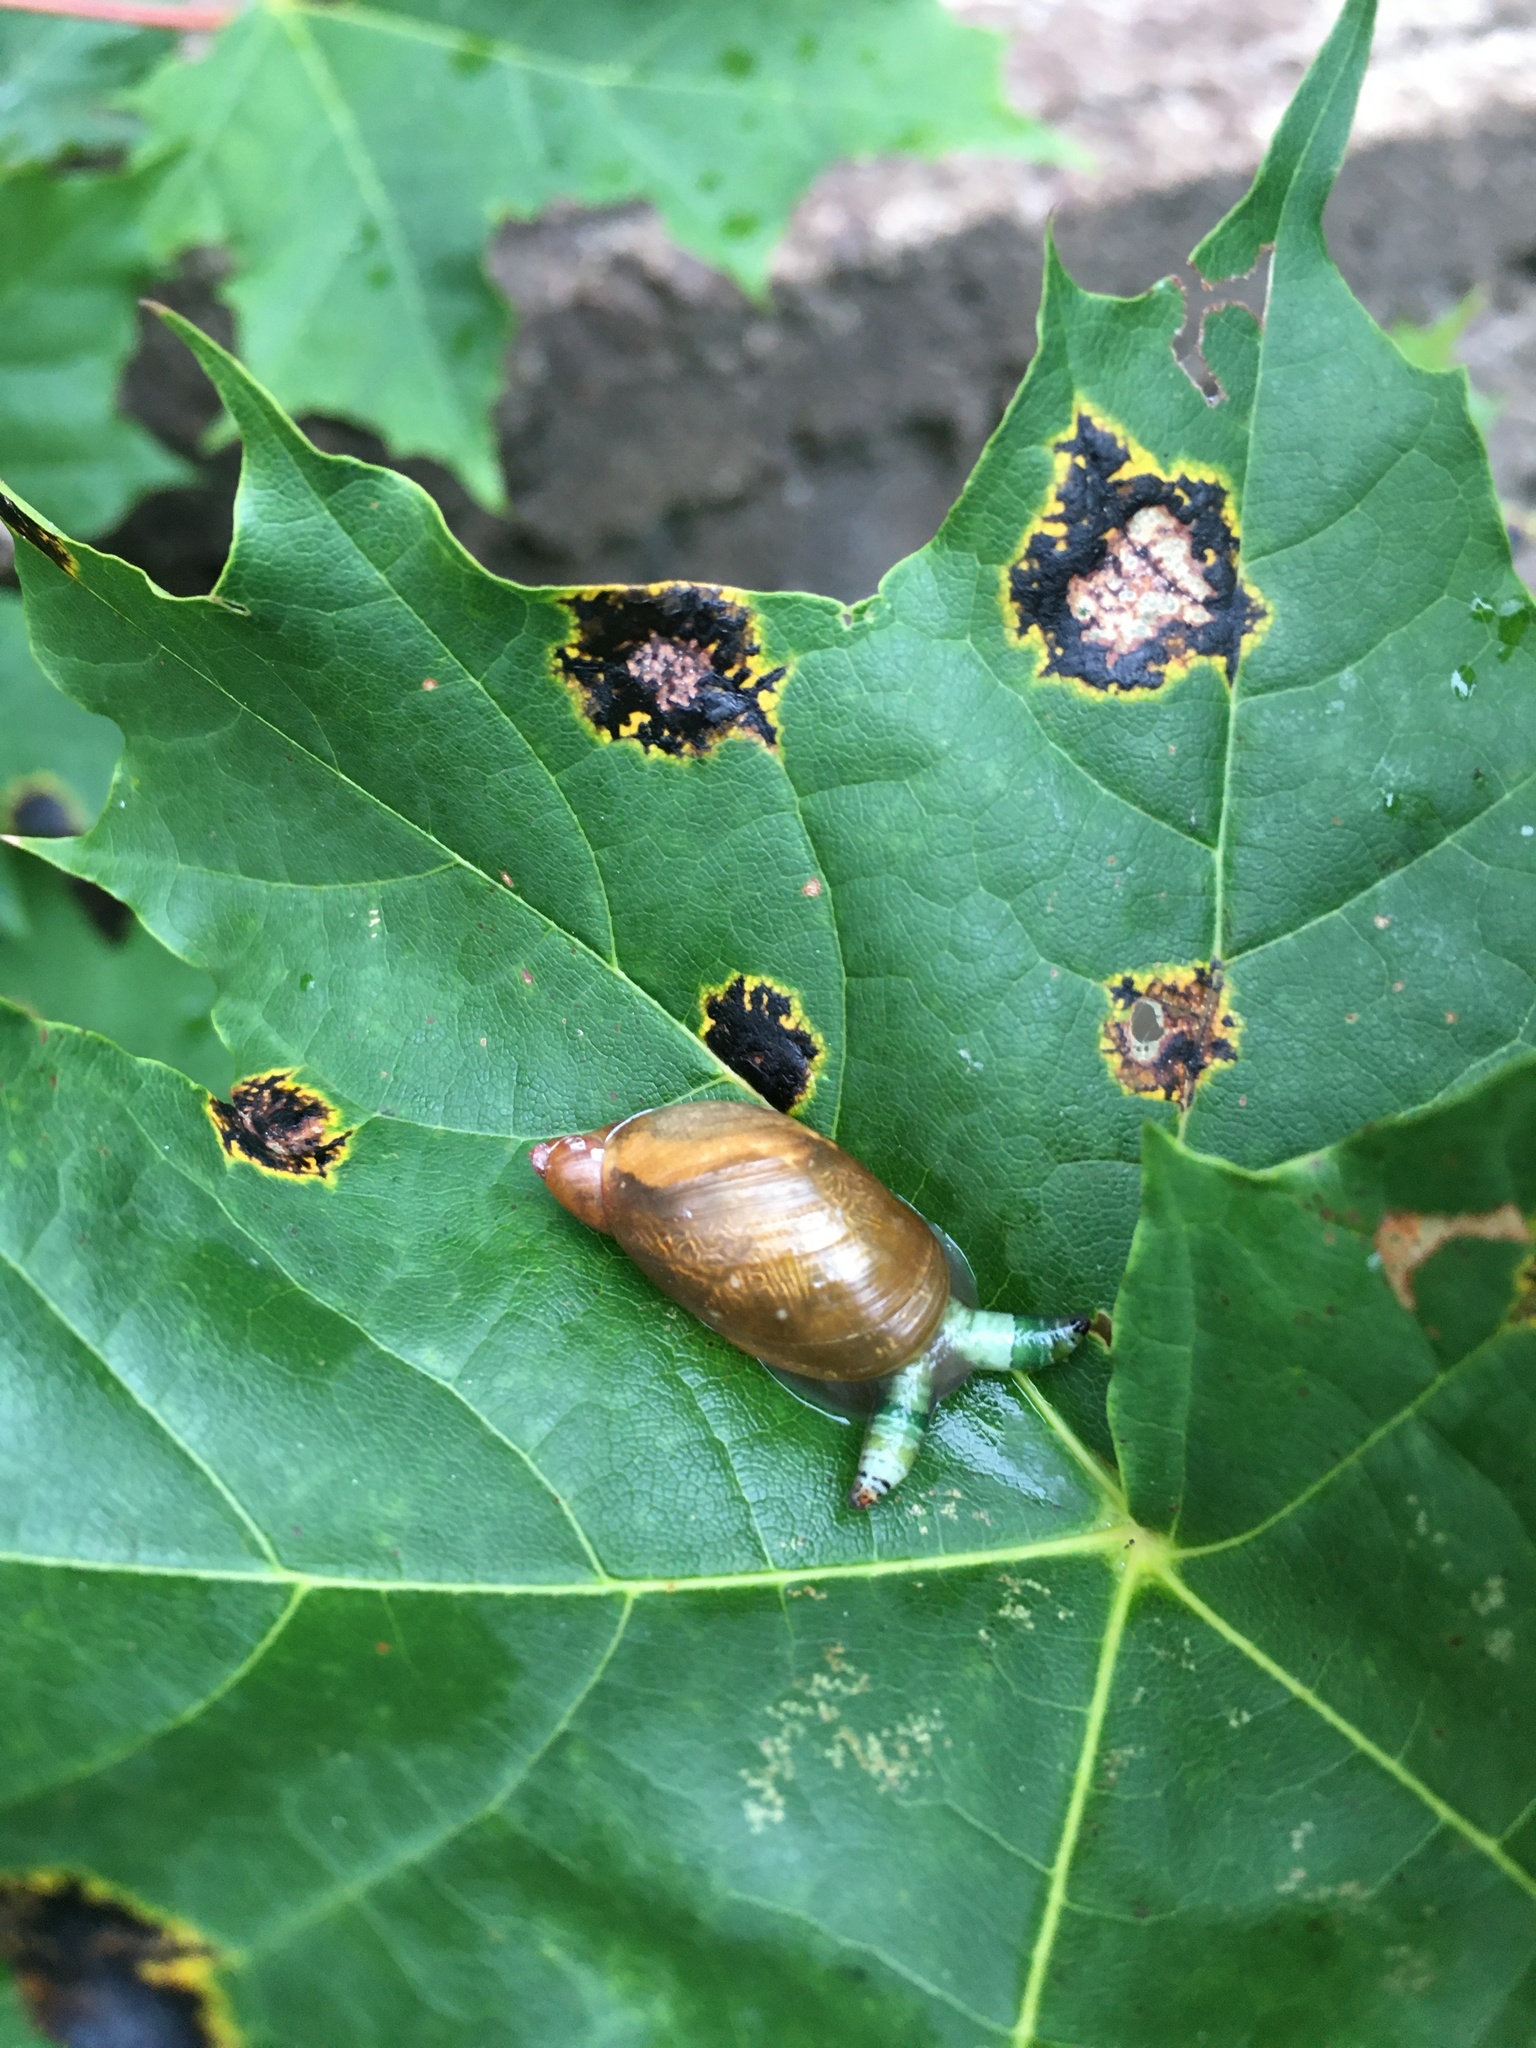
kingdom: Animalia
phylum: Mollusca
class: Gastropoda
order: Stylommatophora
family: Succineidae
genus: Succinea
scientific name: Succinea putris
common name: European ambersnail
